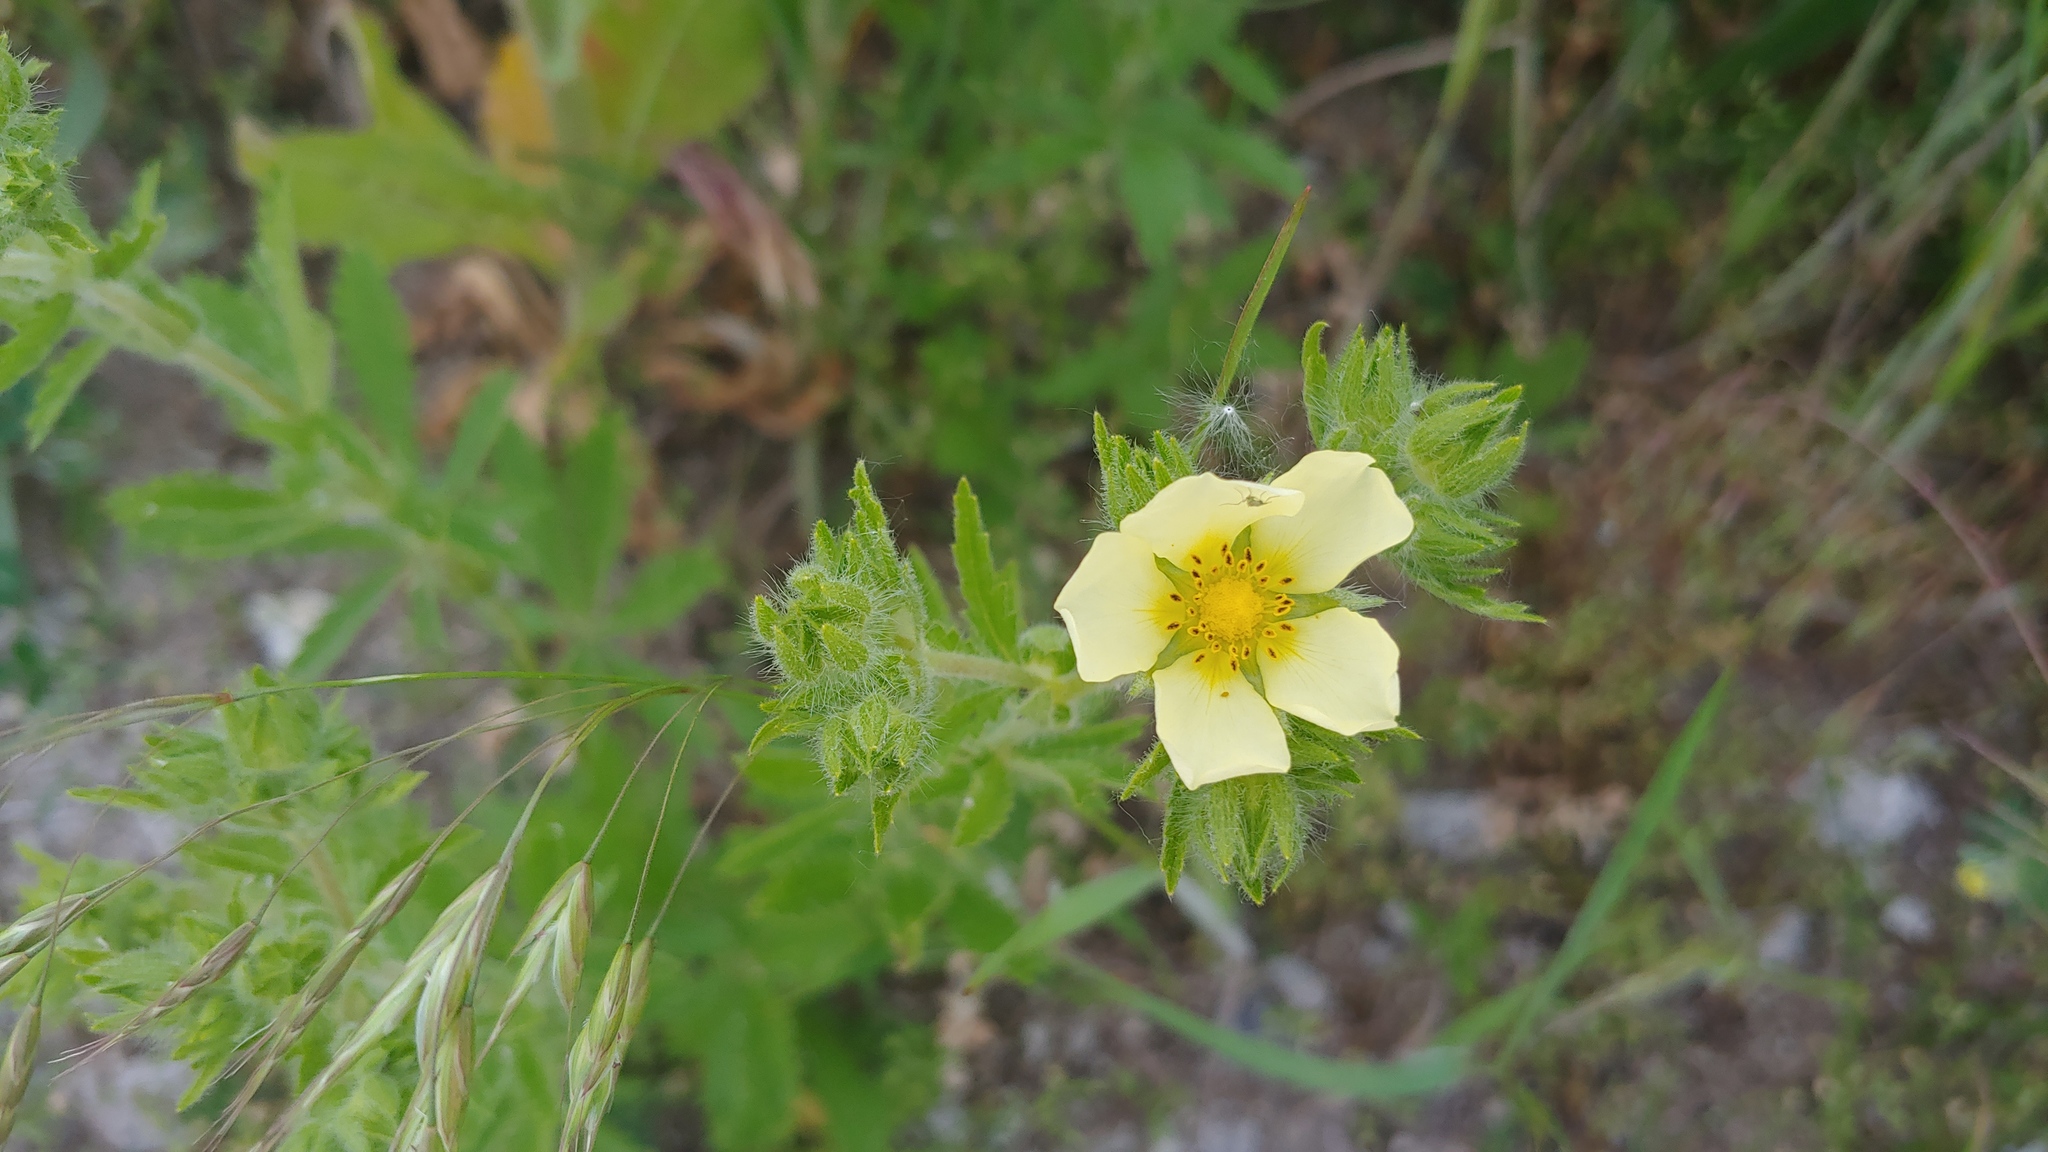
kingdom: Plantae
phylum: Tracheophyta
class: Magnoliopsida
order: Rosales
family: Rosaceae
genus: Potentilla
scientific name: Potentilla recta
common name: Sulphur cinquefoil
